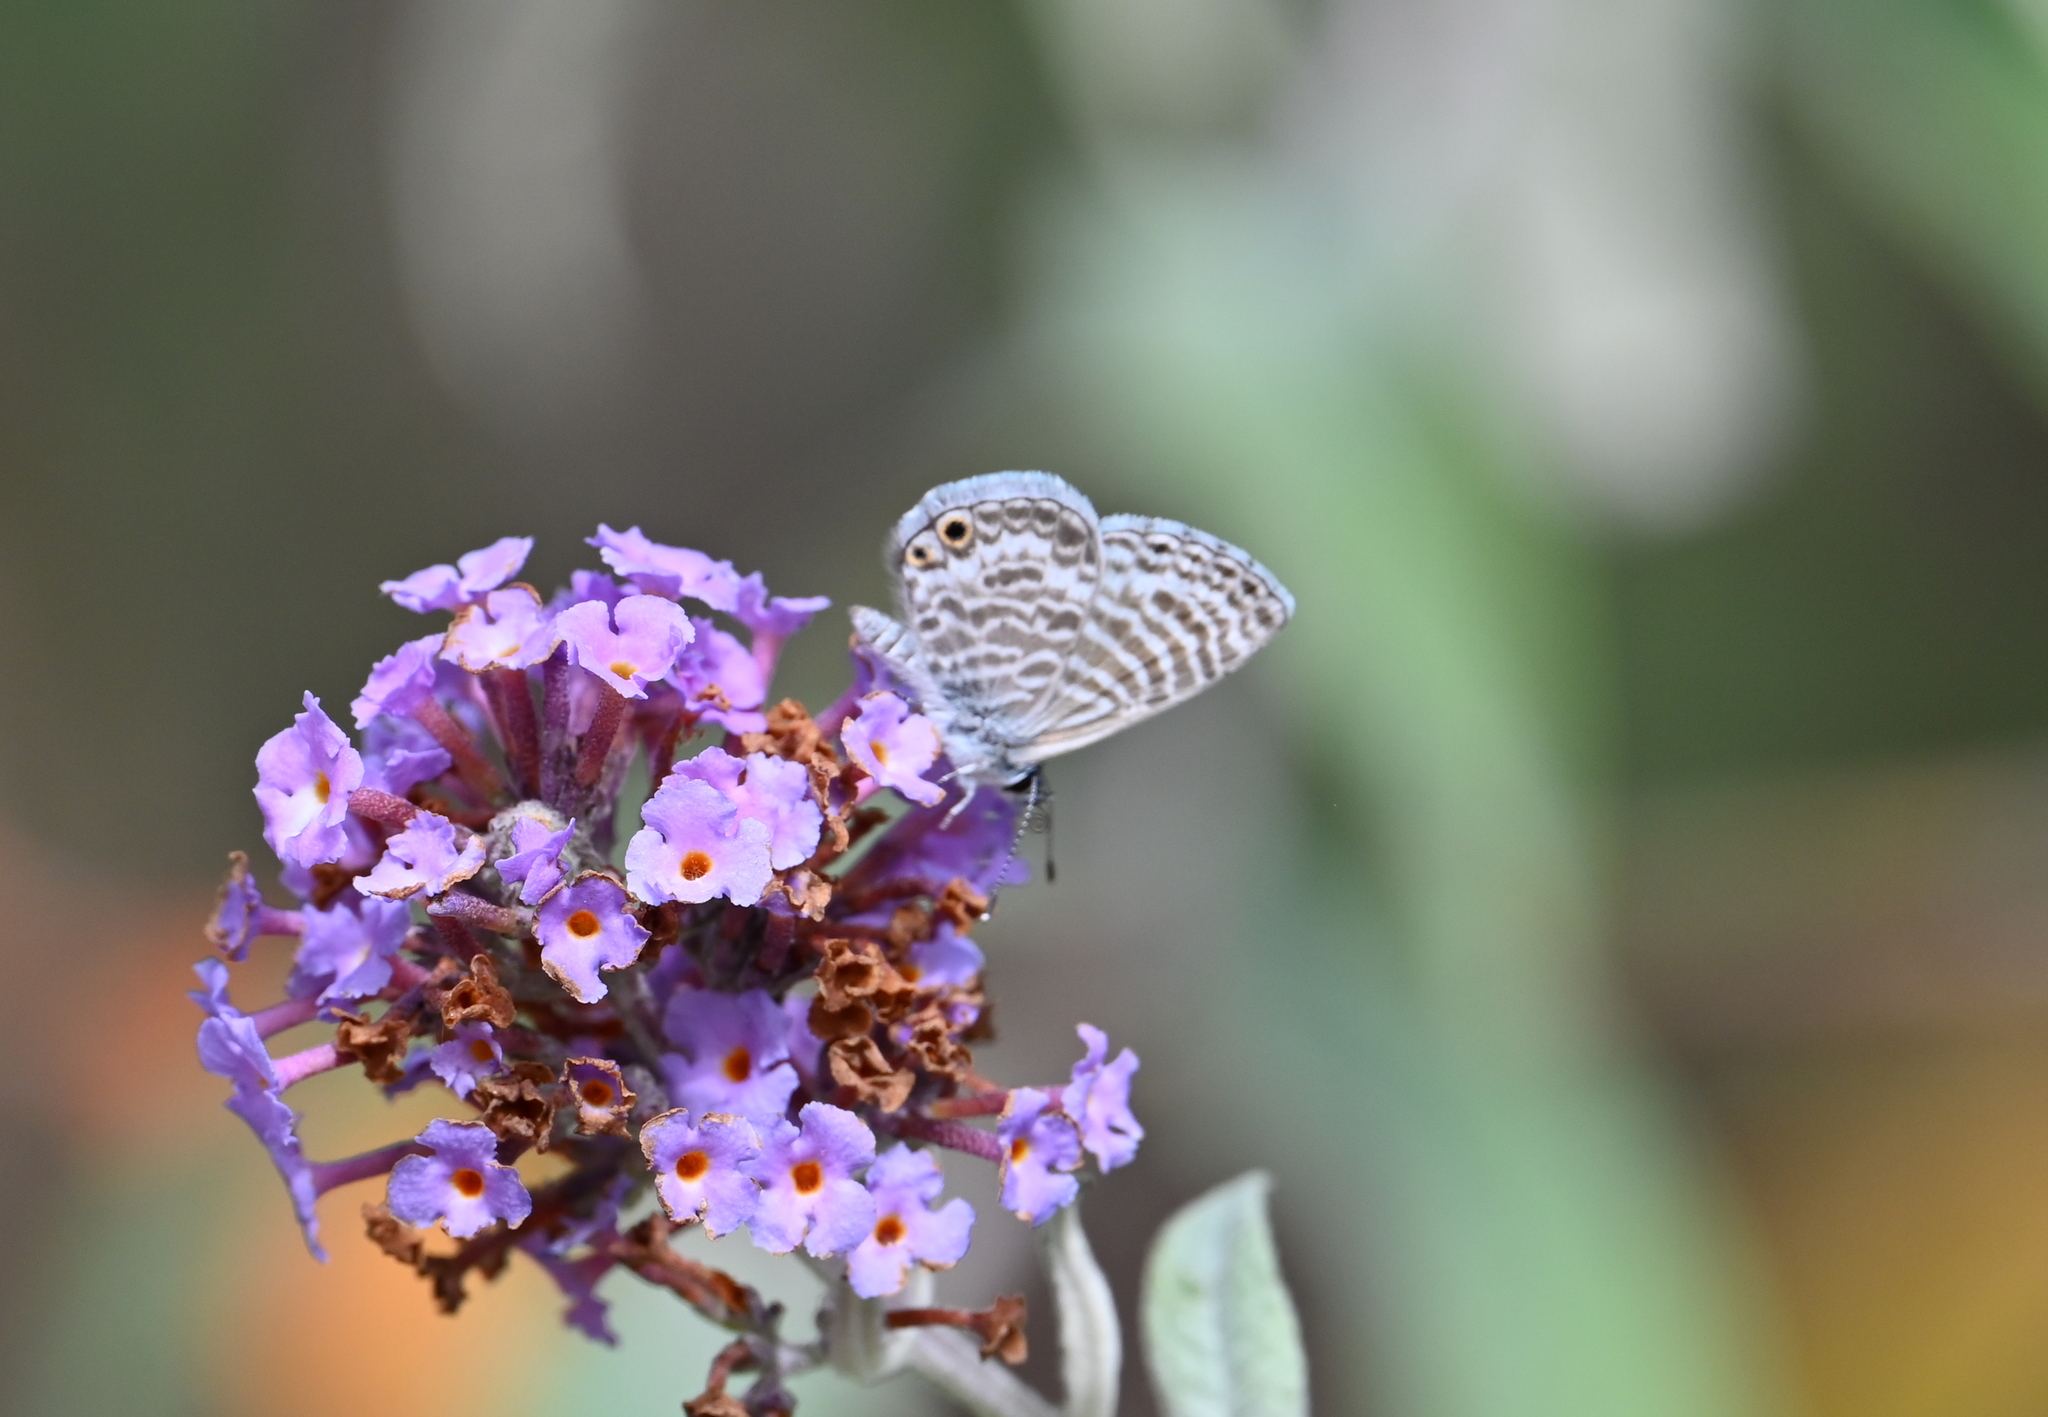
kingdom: Animalia
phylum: Arthropoda
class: Insecta
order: Lepidoptera
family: Lycaenidae
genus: Leptotes
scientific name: Leptotes marina
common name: Marine blue
